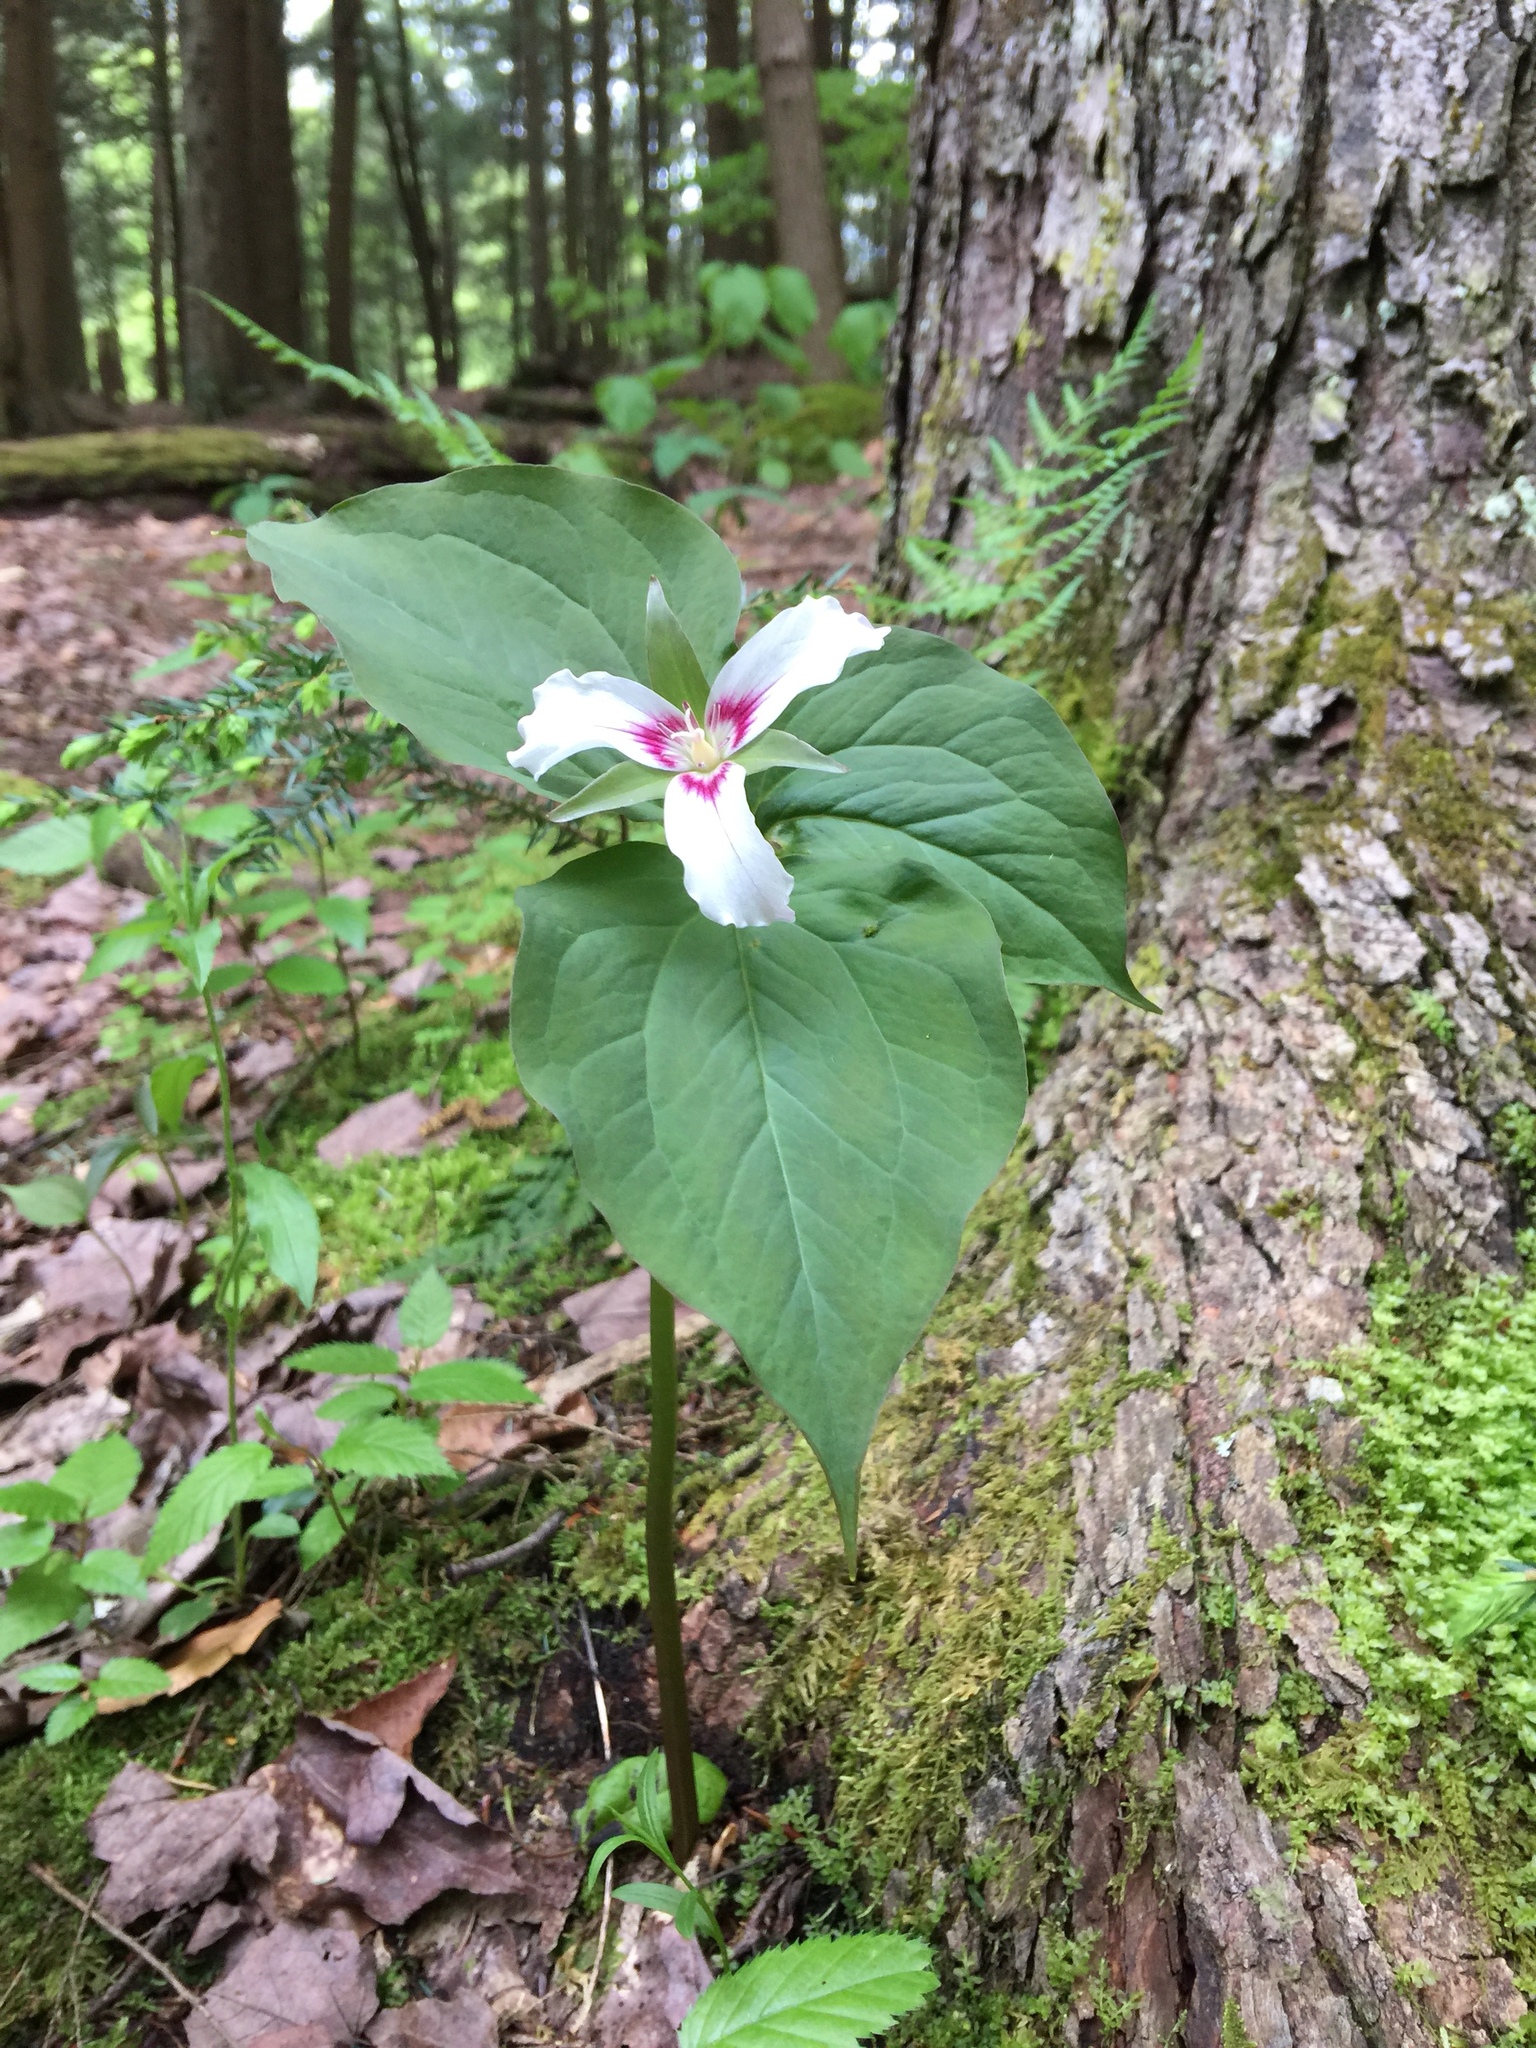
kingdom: Plantae
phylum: Tracheophyta
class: Liliopsida
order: Liliales
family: Melanthiaceae
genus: Trillium
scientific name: Trillium undulatum
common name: Paint trillium
